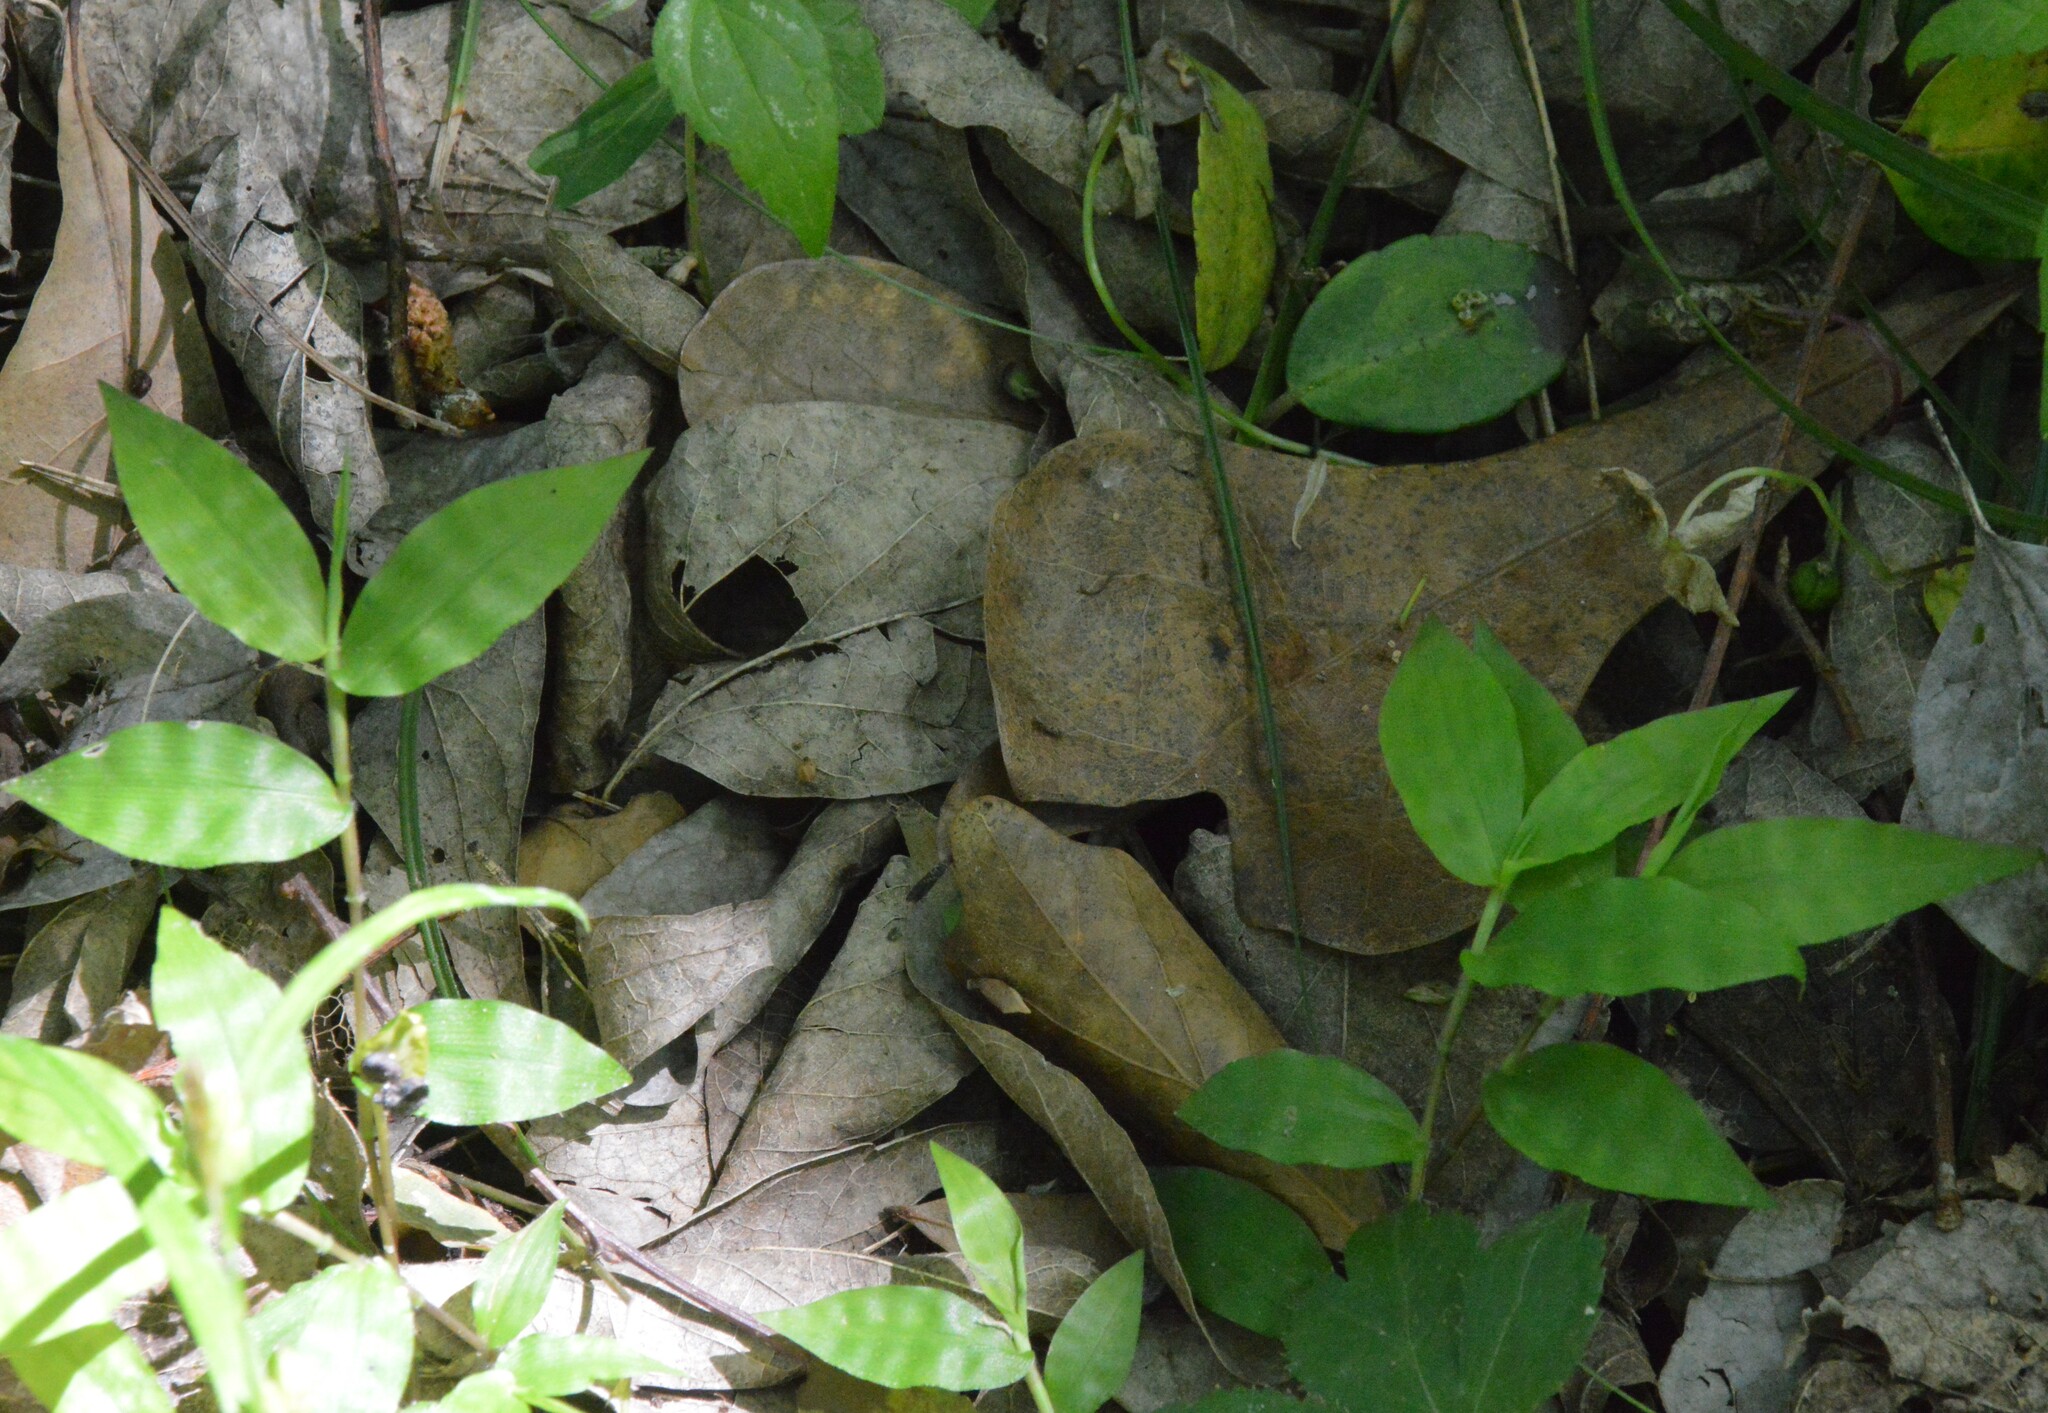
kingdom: Plantae
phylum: Tracheophyta
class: Liliopsida
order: Poales
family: Poaceae
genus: Oplismenus
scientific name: Oplismenus hirtellus
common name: Basketgrass
